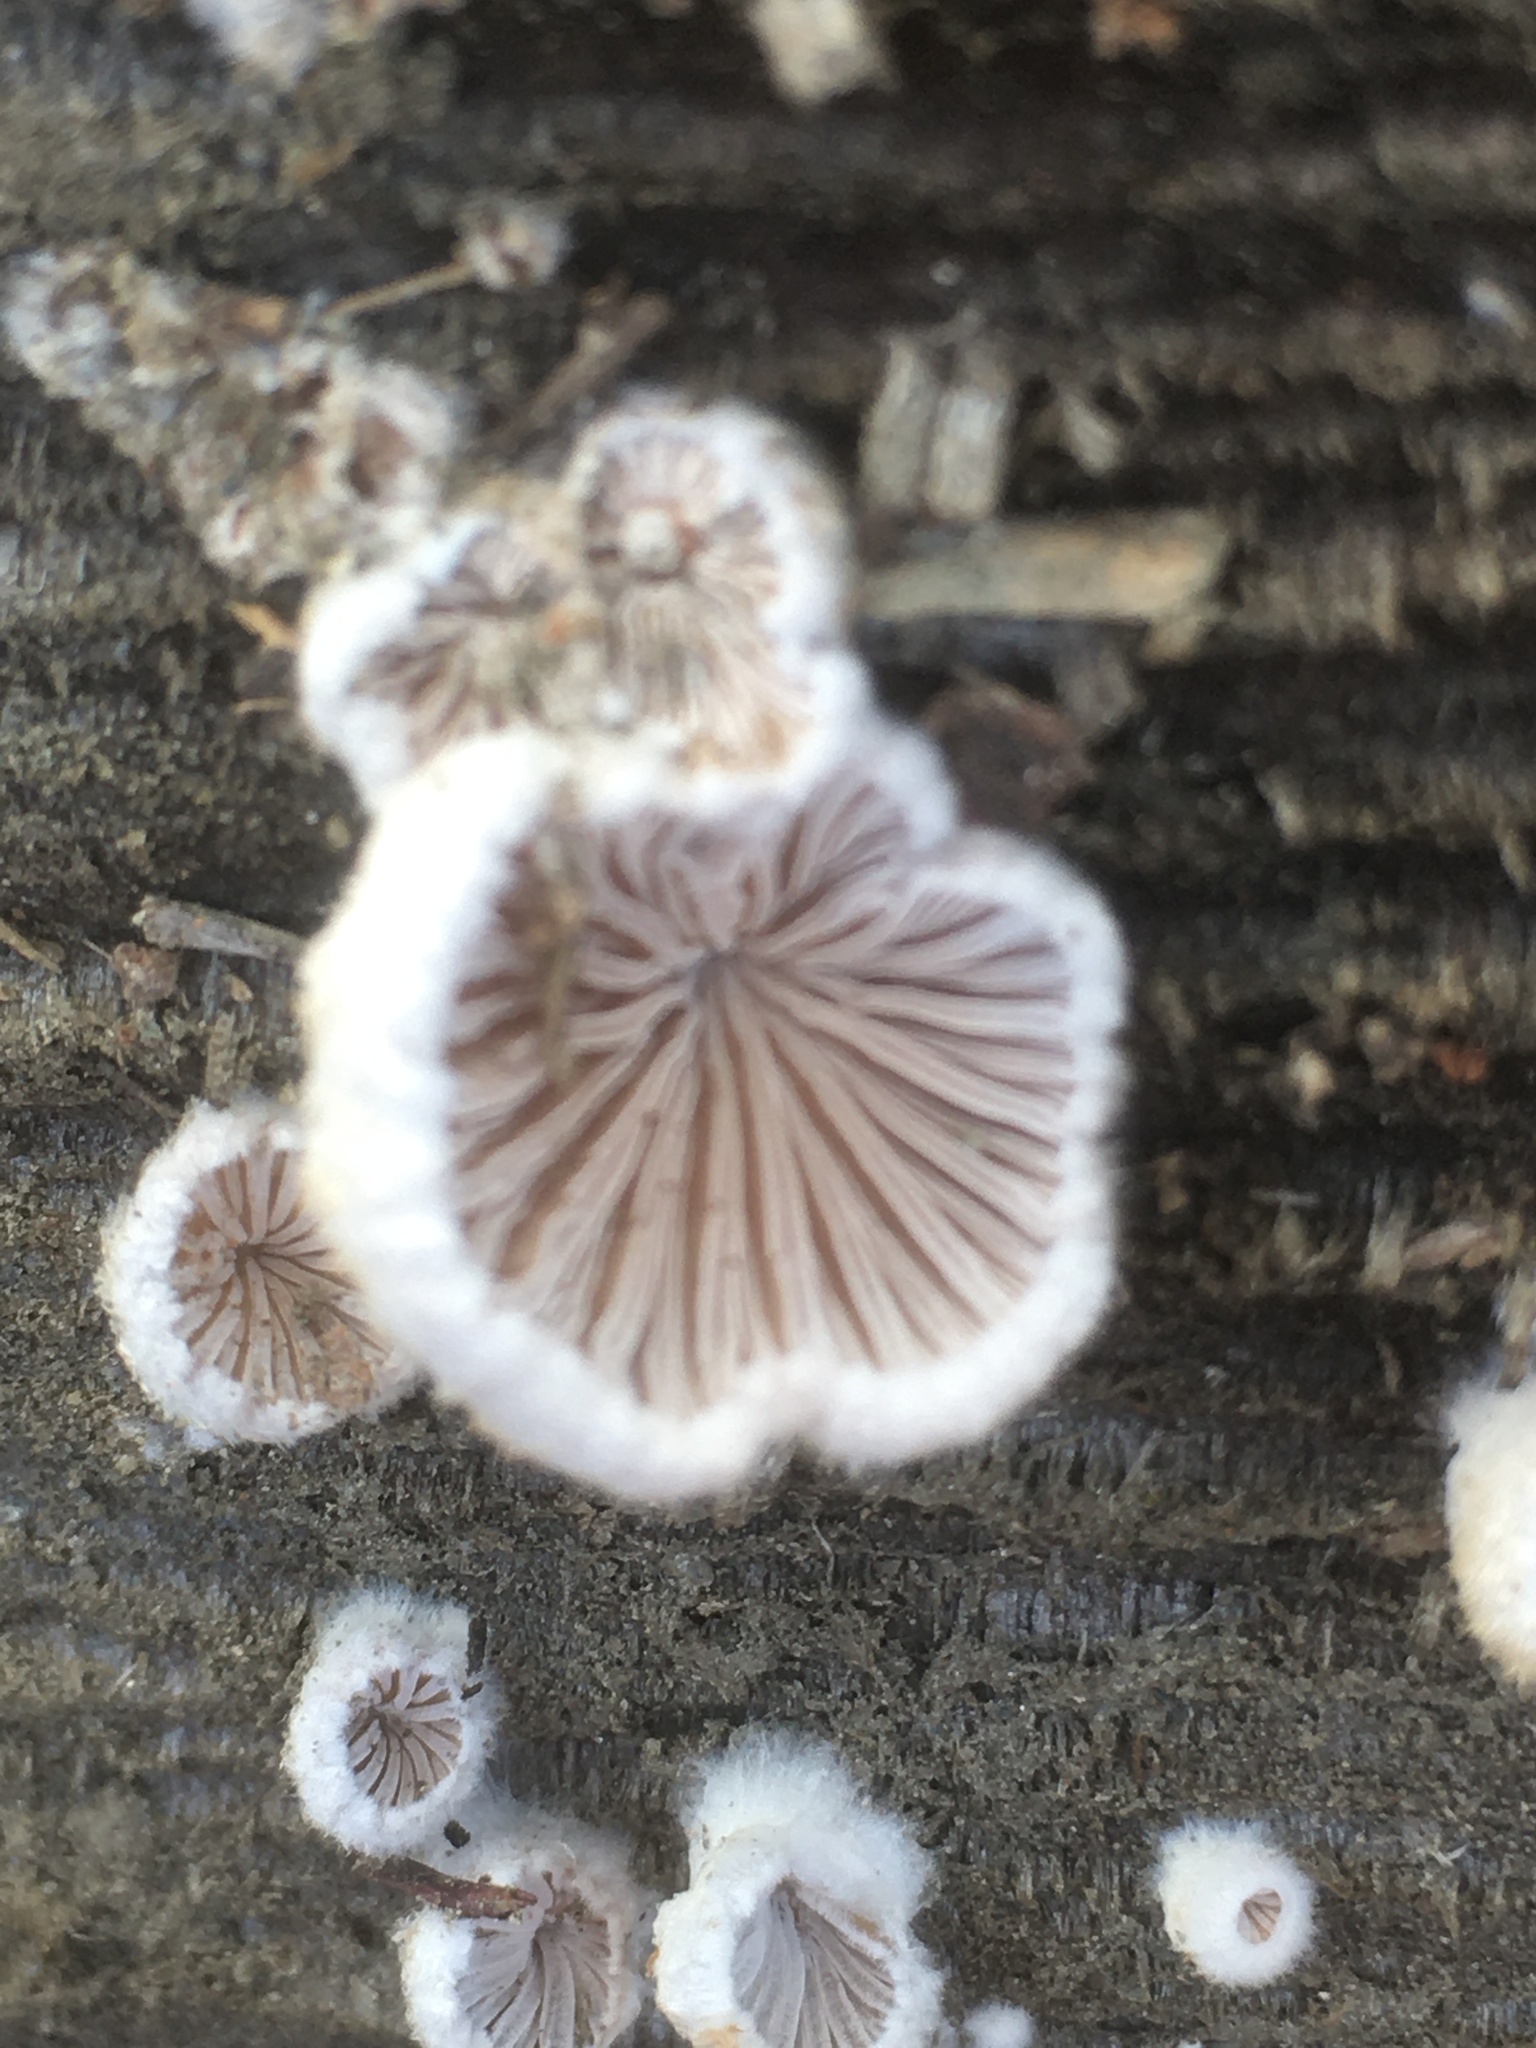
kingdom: Fungi
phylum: Basidiomycota
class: Agaricomycetes
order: Agaricales
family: Schizophyllaceae
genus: Schizophyllum
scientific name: Schizophyllum commune
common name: Common porecrust
